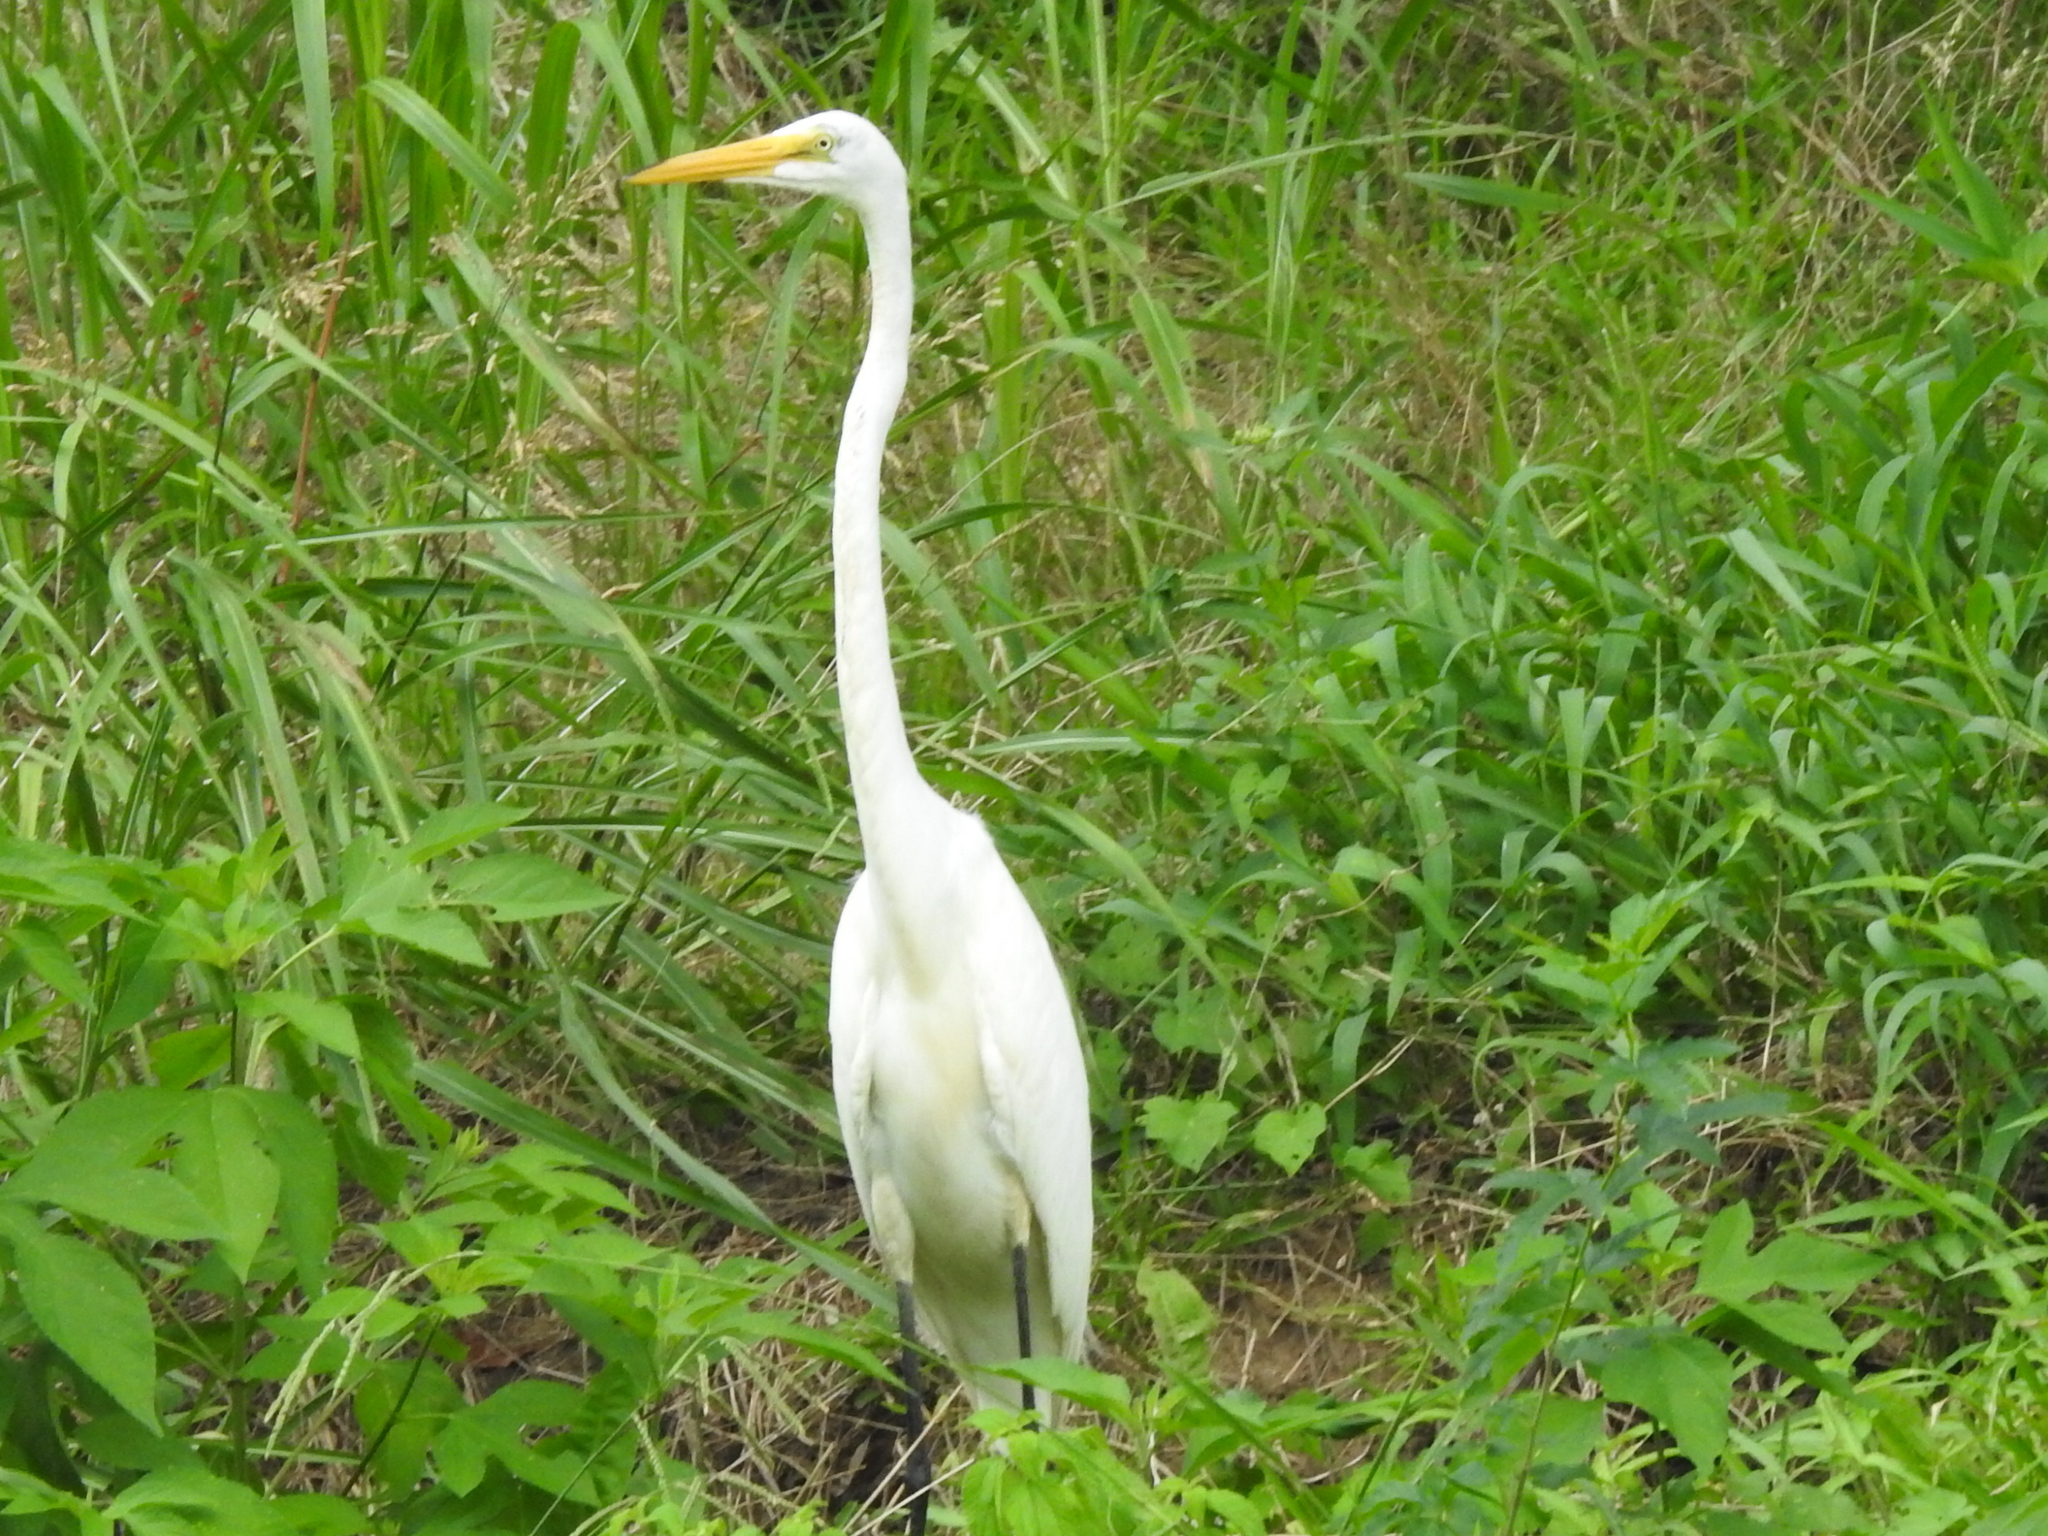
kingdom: Animalia
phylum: Chordata
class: Aves
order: Pelecaniformes
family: Ardeidae
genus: Ardea
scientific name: Ardea alba
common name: Great egret
